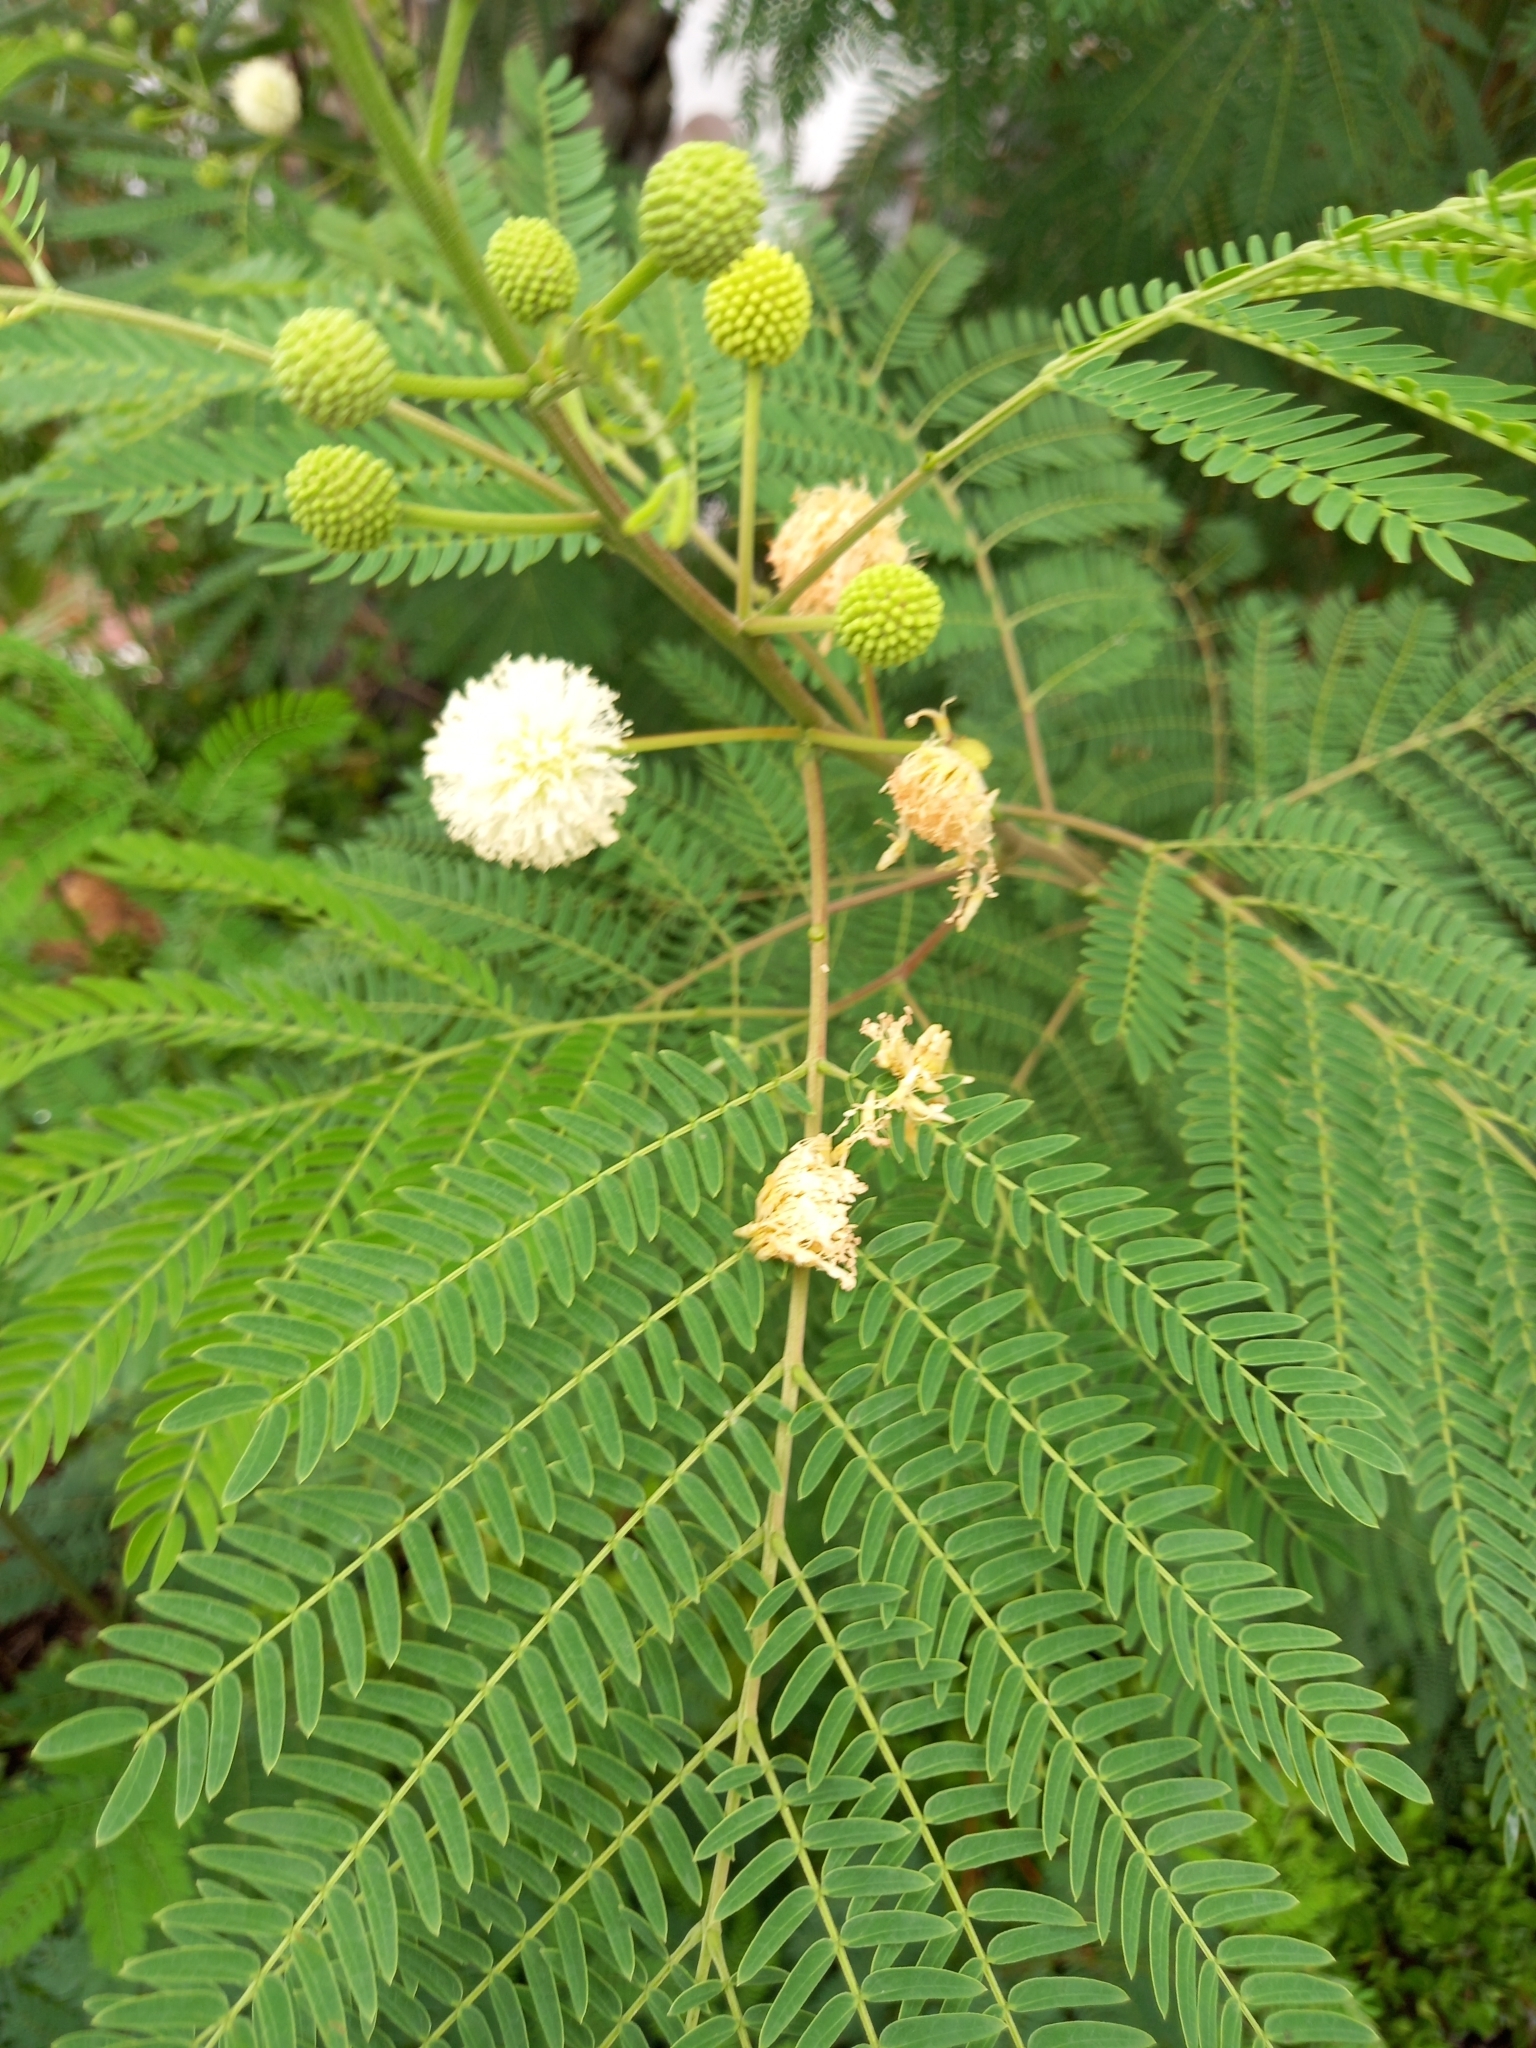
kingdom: Plantae
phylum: Tracheophyta
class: Magnoliopsida
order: Fabales
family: Fabaceae
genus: Leucaena
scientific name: Leucaena leucocephala
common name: White leadtree
